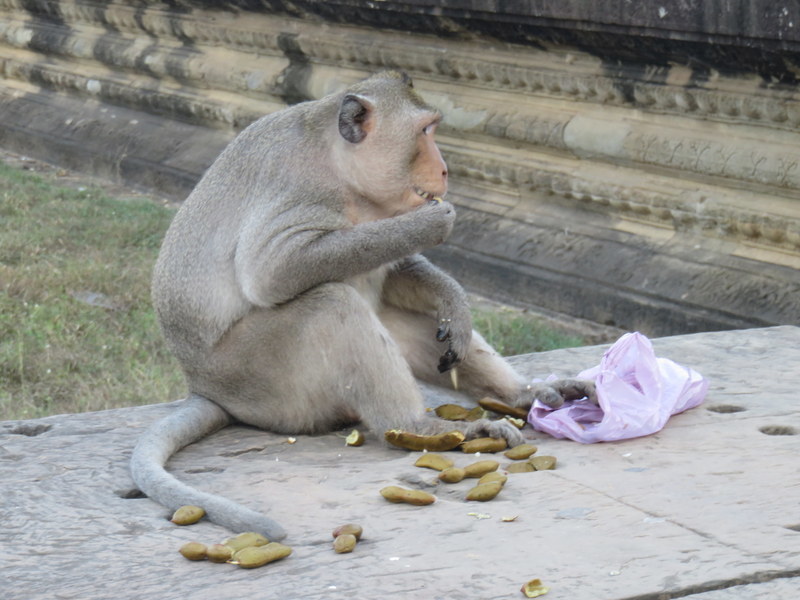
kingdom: Animalia
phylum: Chordata
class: Mammalia
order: Primates
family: Cercopithecidae
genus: Macaca
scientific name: Macaca fascicularis
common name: Crab-eating macaque
